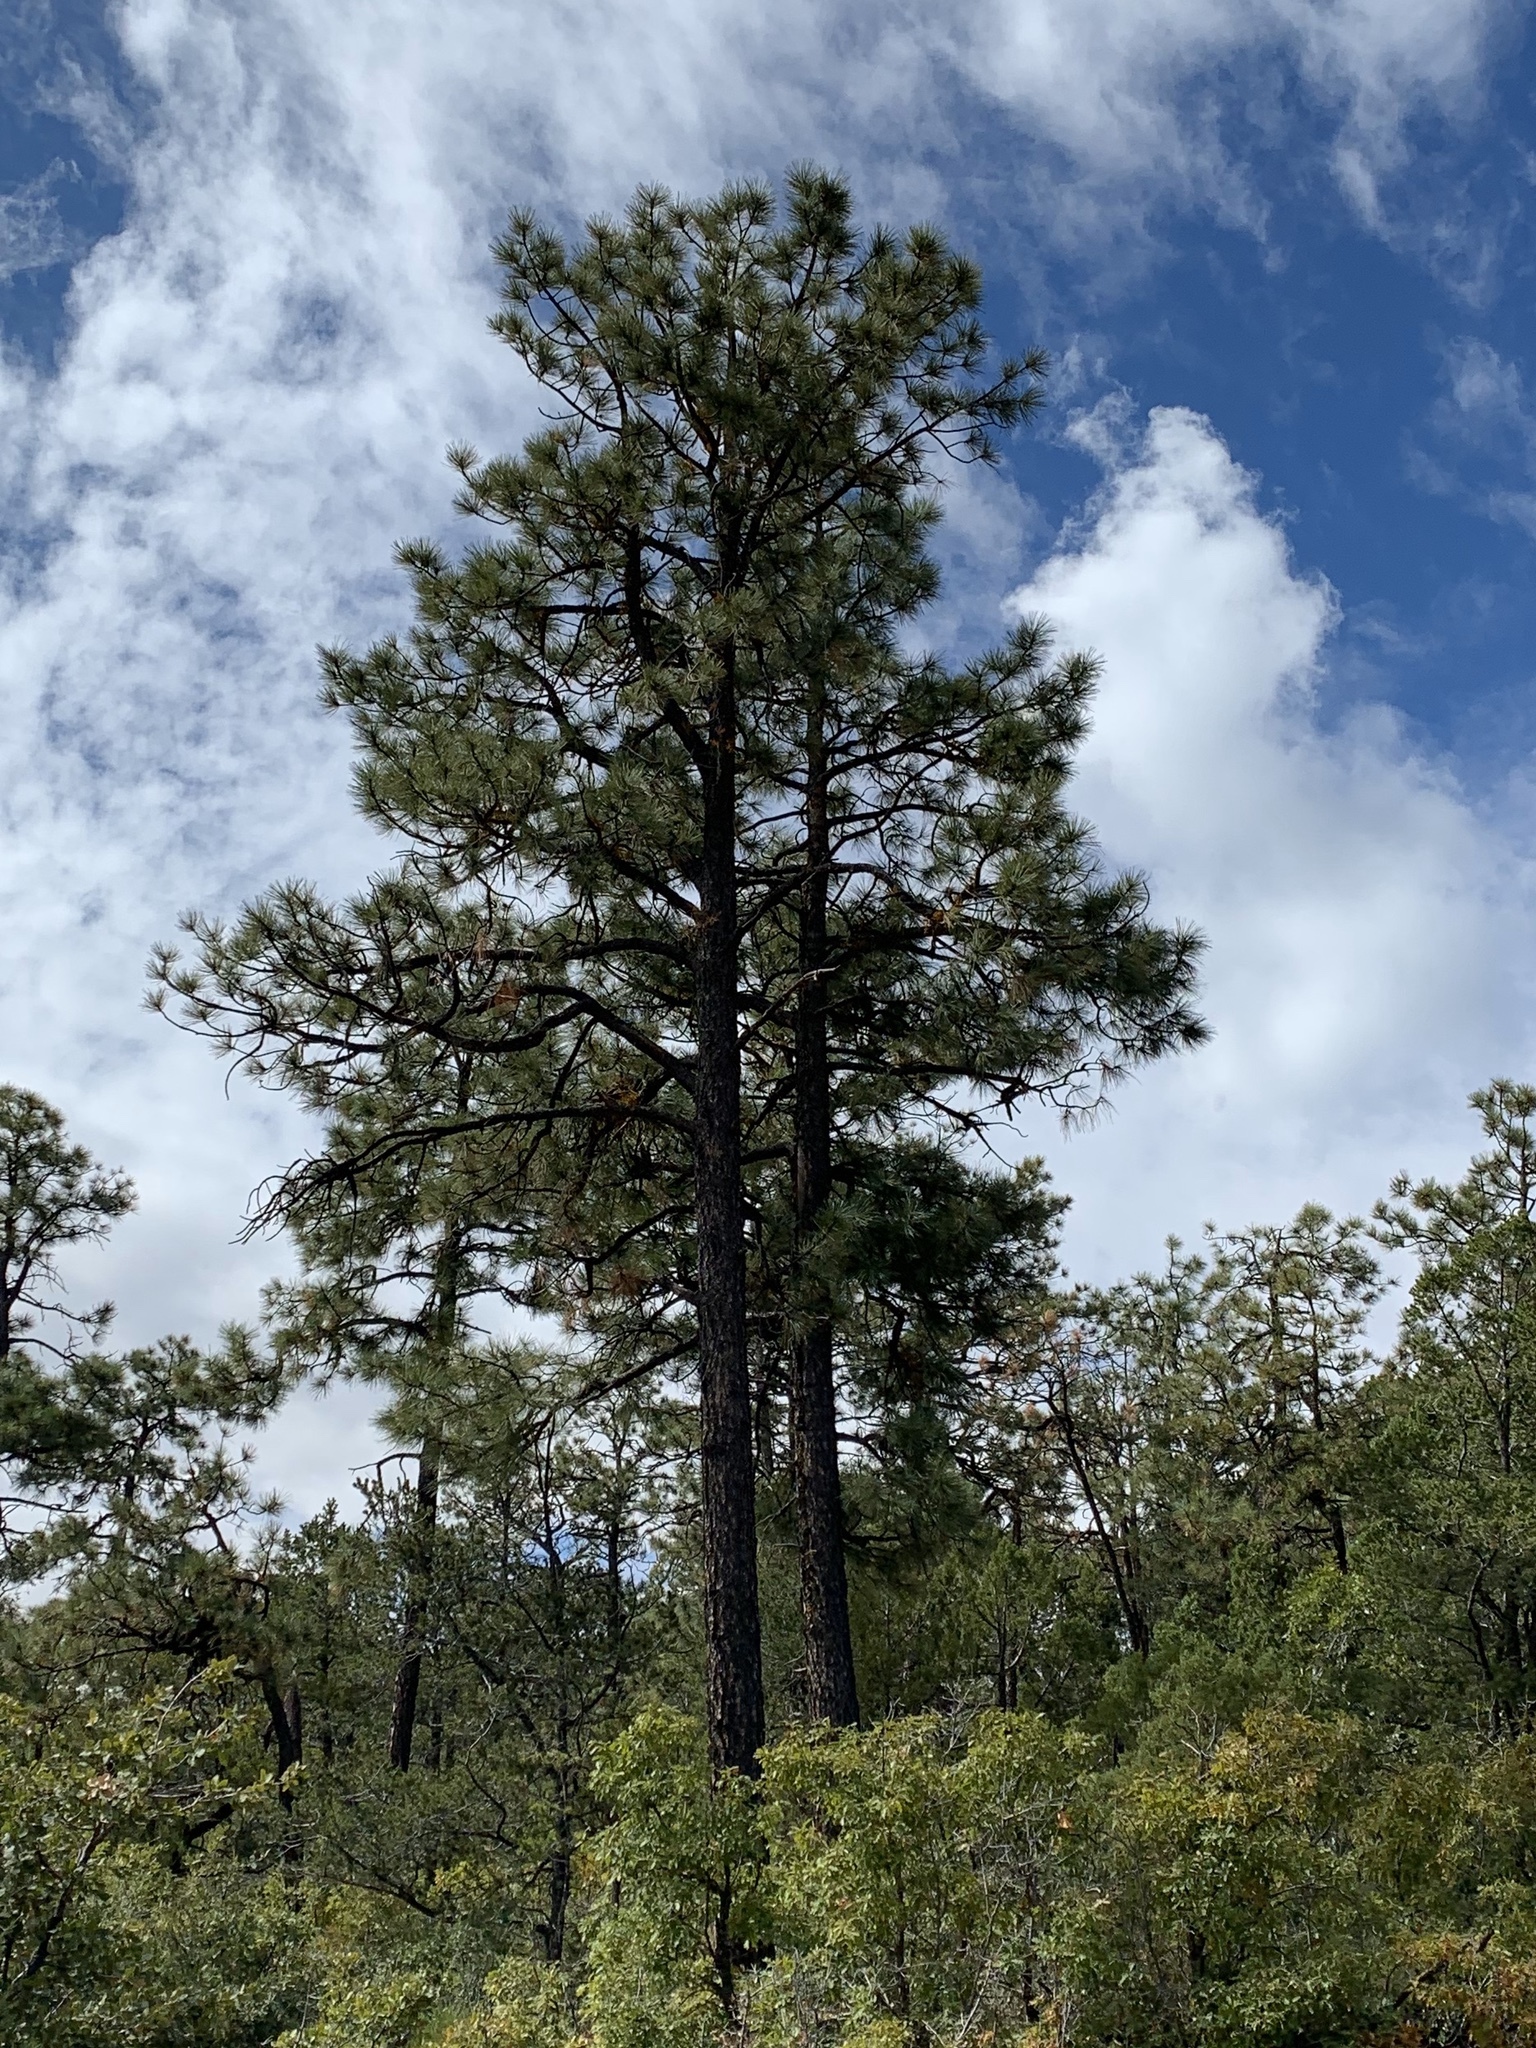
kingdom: Plantae
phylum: Tracheophyta
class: Pinopsida
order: Pinales
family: Pinaceae
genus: Pinus
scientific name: Pinus ponderosa
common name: Western yellow-pine
